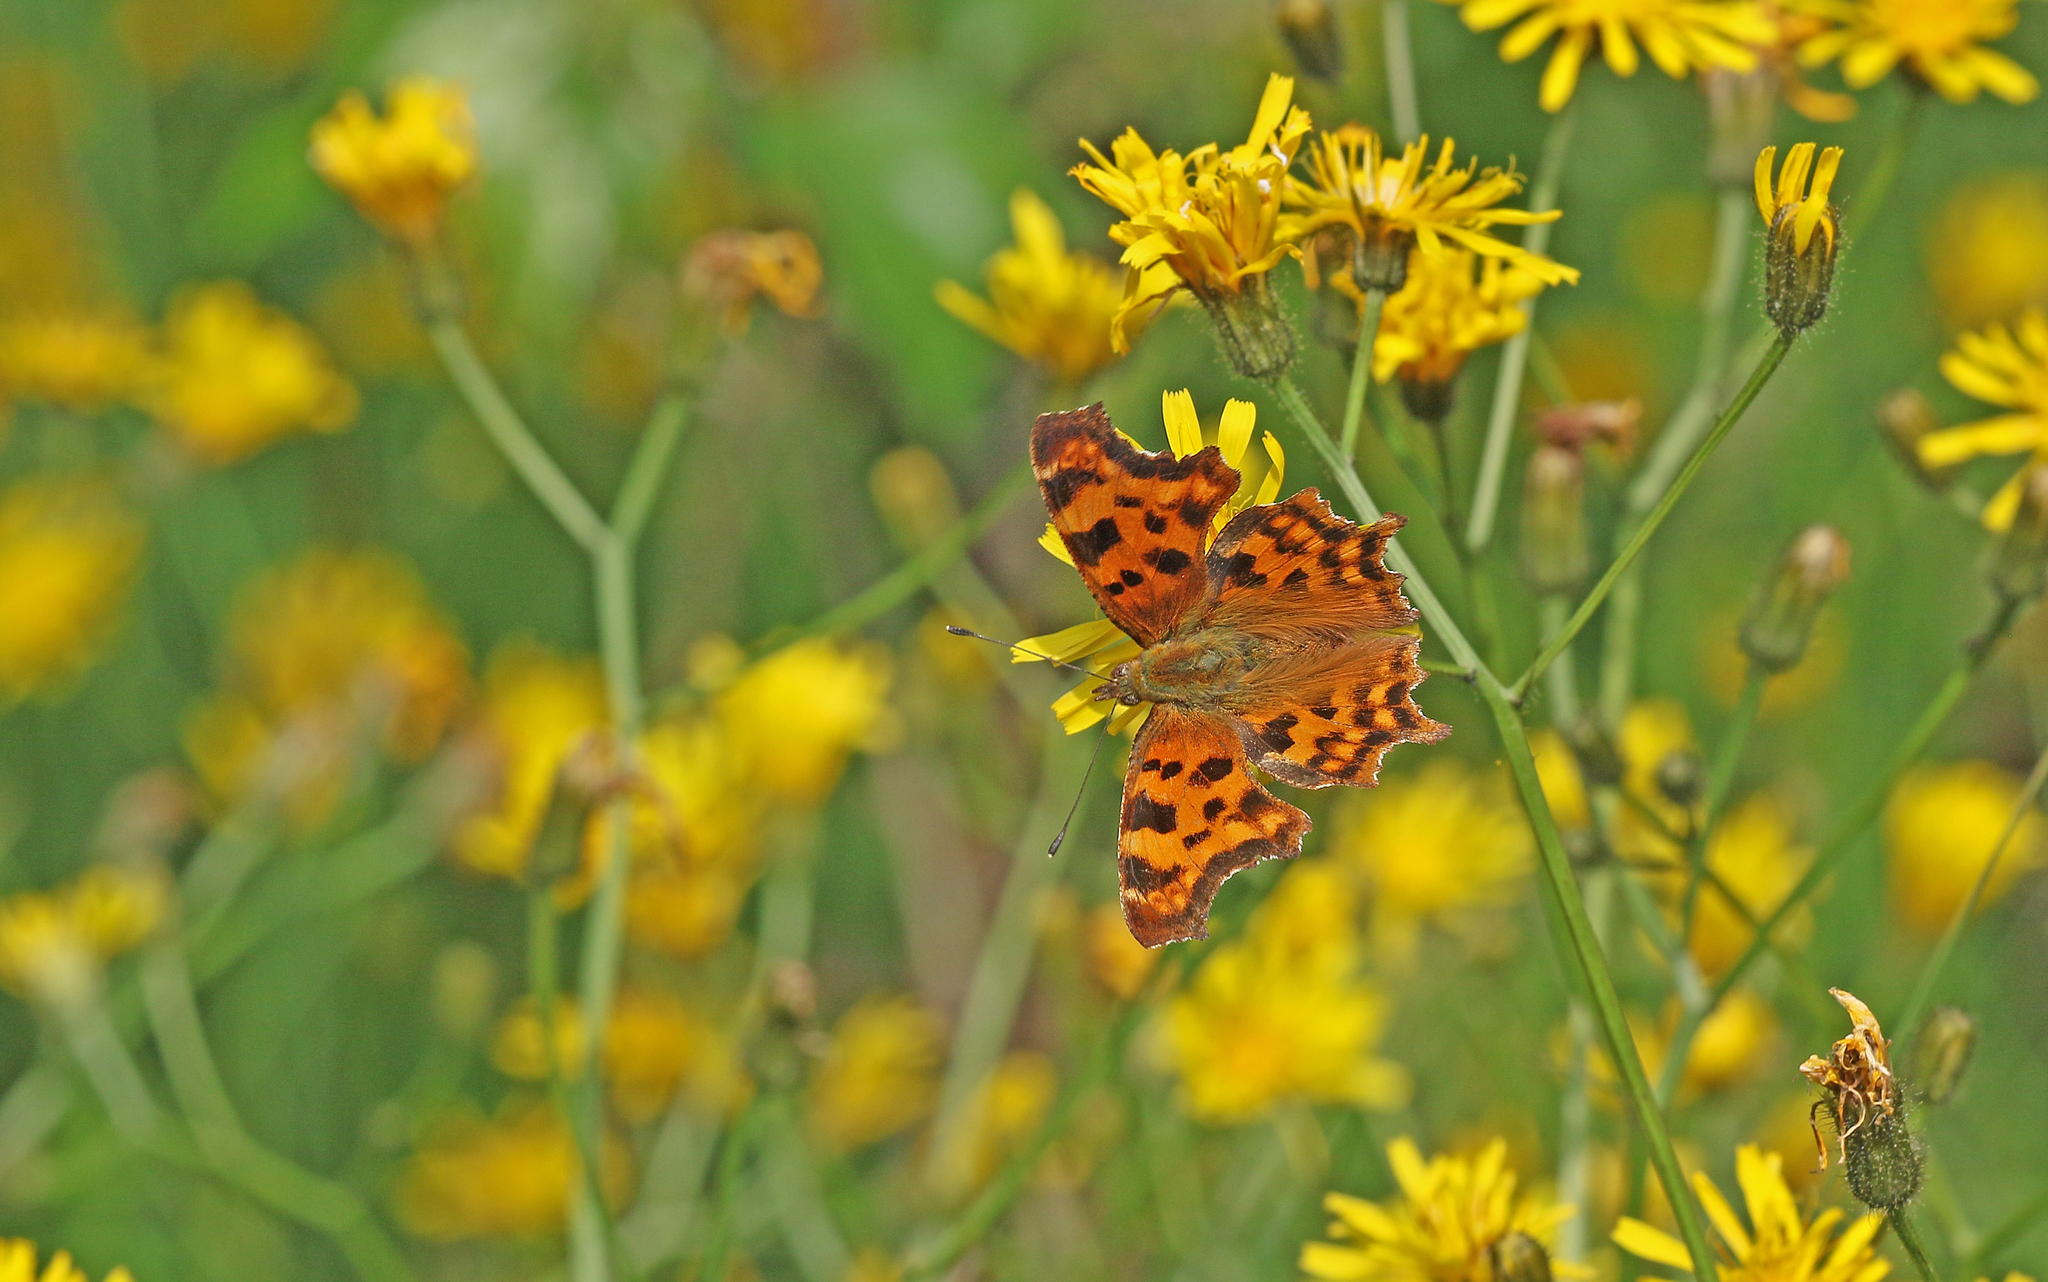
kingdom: Animalia
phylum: Arthropoda
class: Insecta
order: Lepidoptera
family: Nymphalidae
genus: Polygonia
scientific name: Polygonia c-album
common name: Comma
